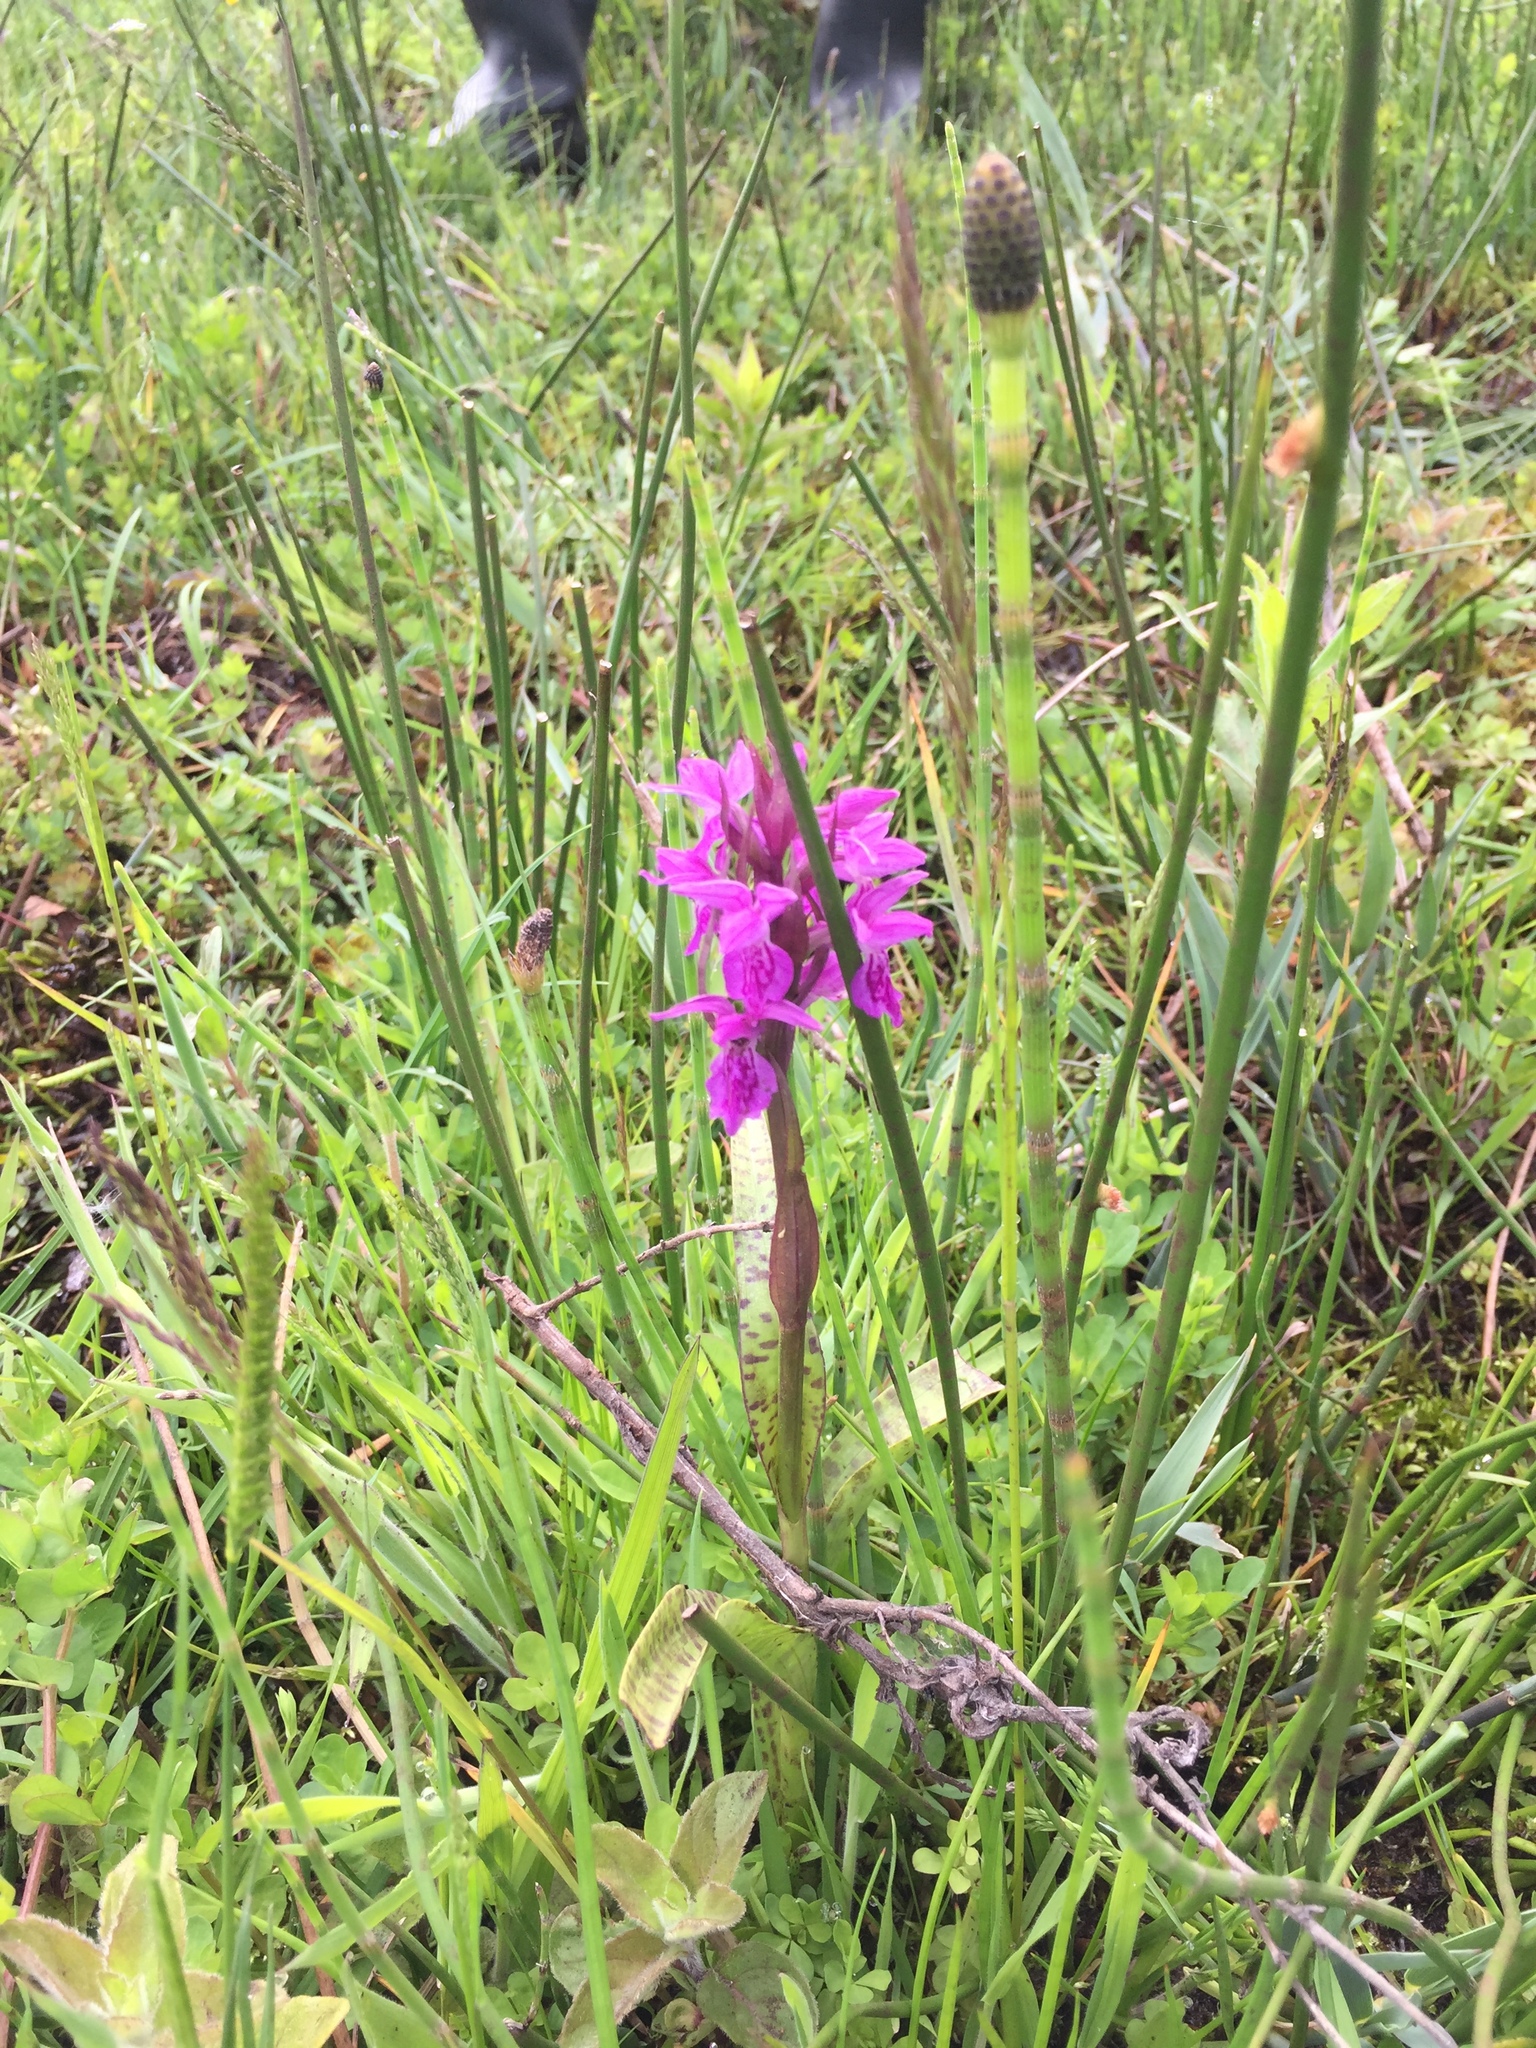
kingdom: Plantae
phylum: Tracheophyta
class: Liliopsida
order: Asparagales
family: Orchidaceae
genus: Dactylorhiza
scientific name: Dactylorhiza majalis
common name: Marsh orchid
